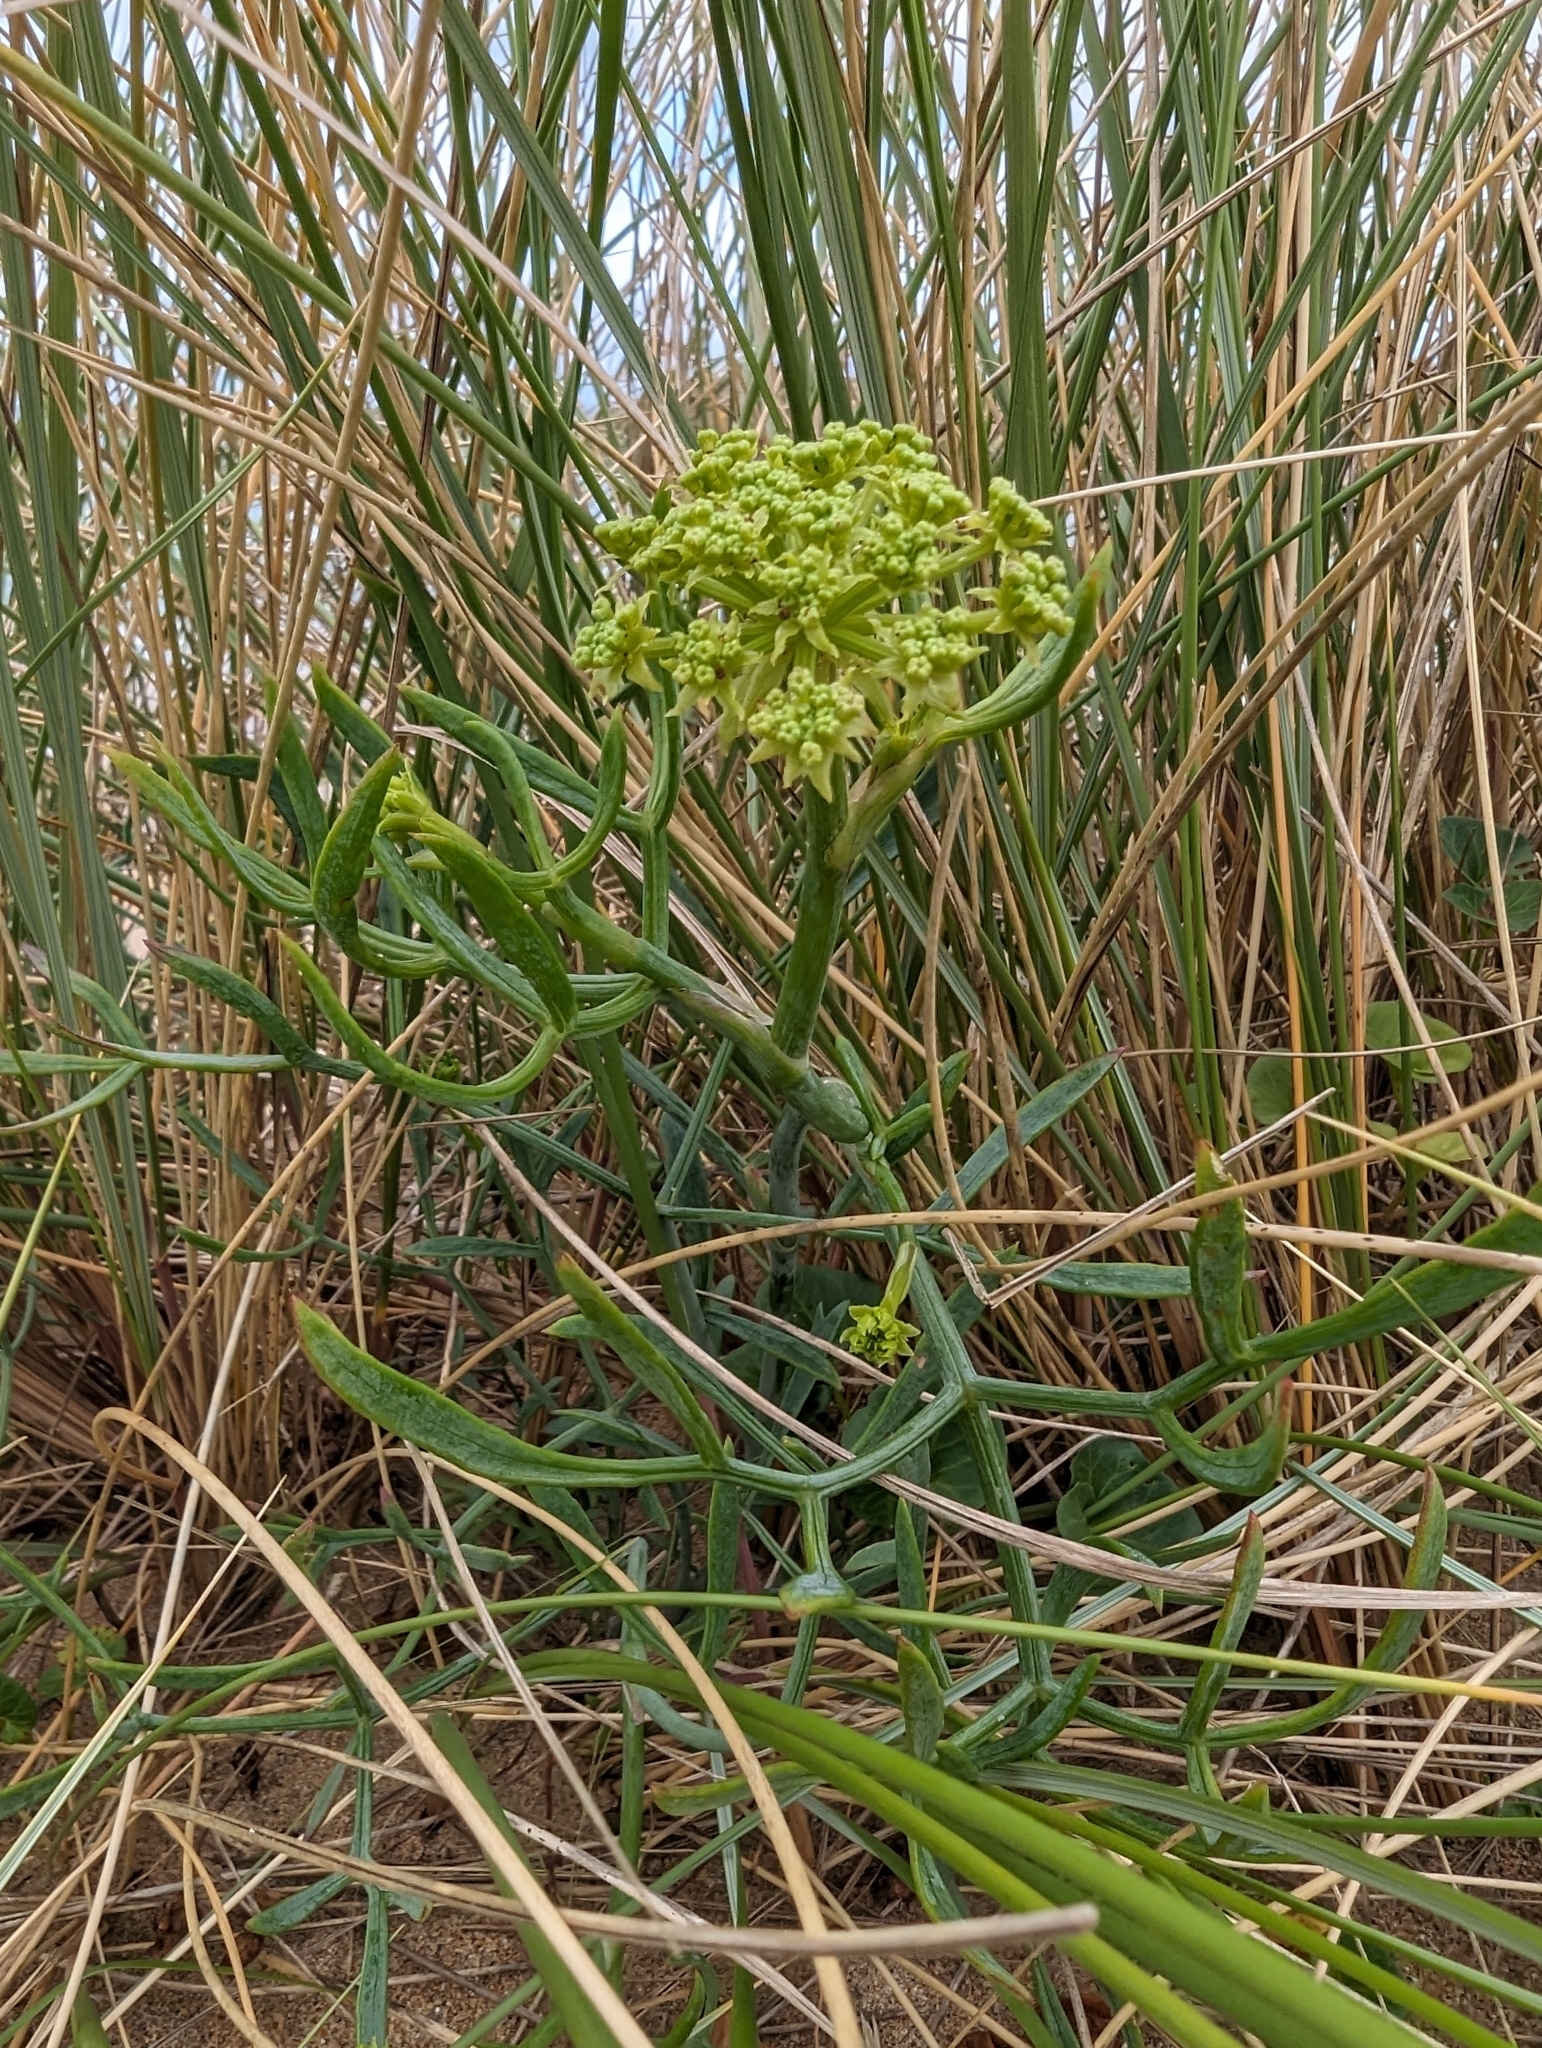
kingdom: Plantae
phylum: Tracheophyta
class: Magnoliopsida
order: Apiales
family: Apiaceae
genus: Crithmum
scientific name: Crithmum maritimum
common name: Rock samphire
